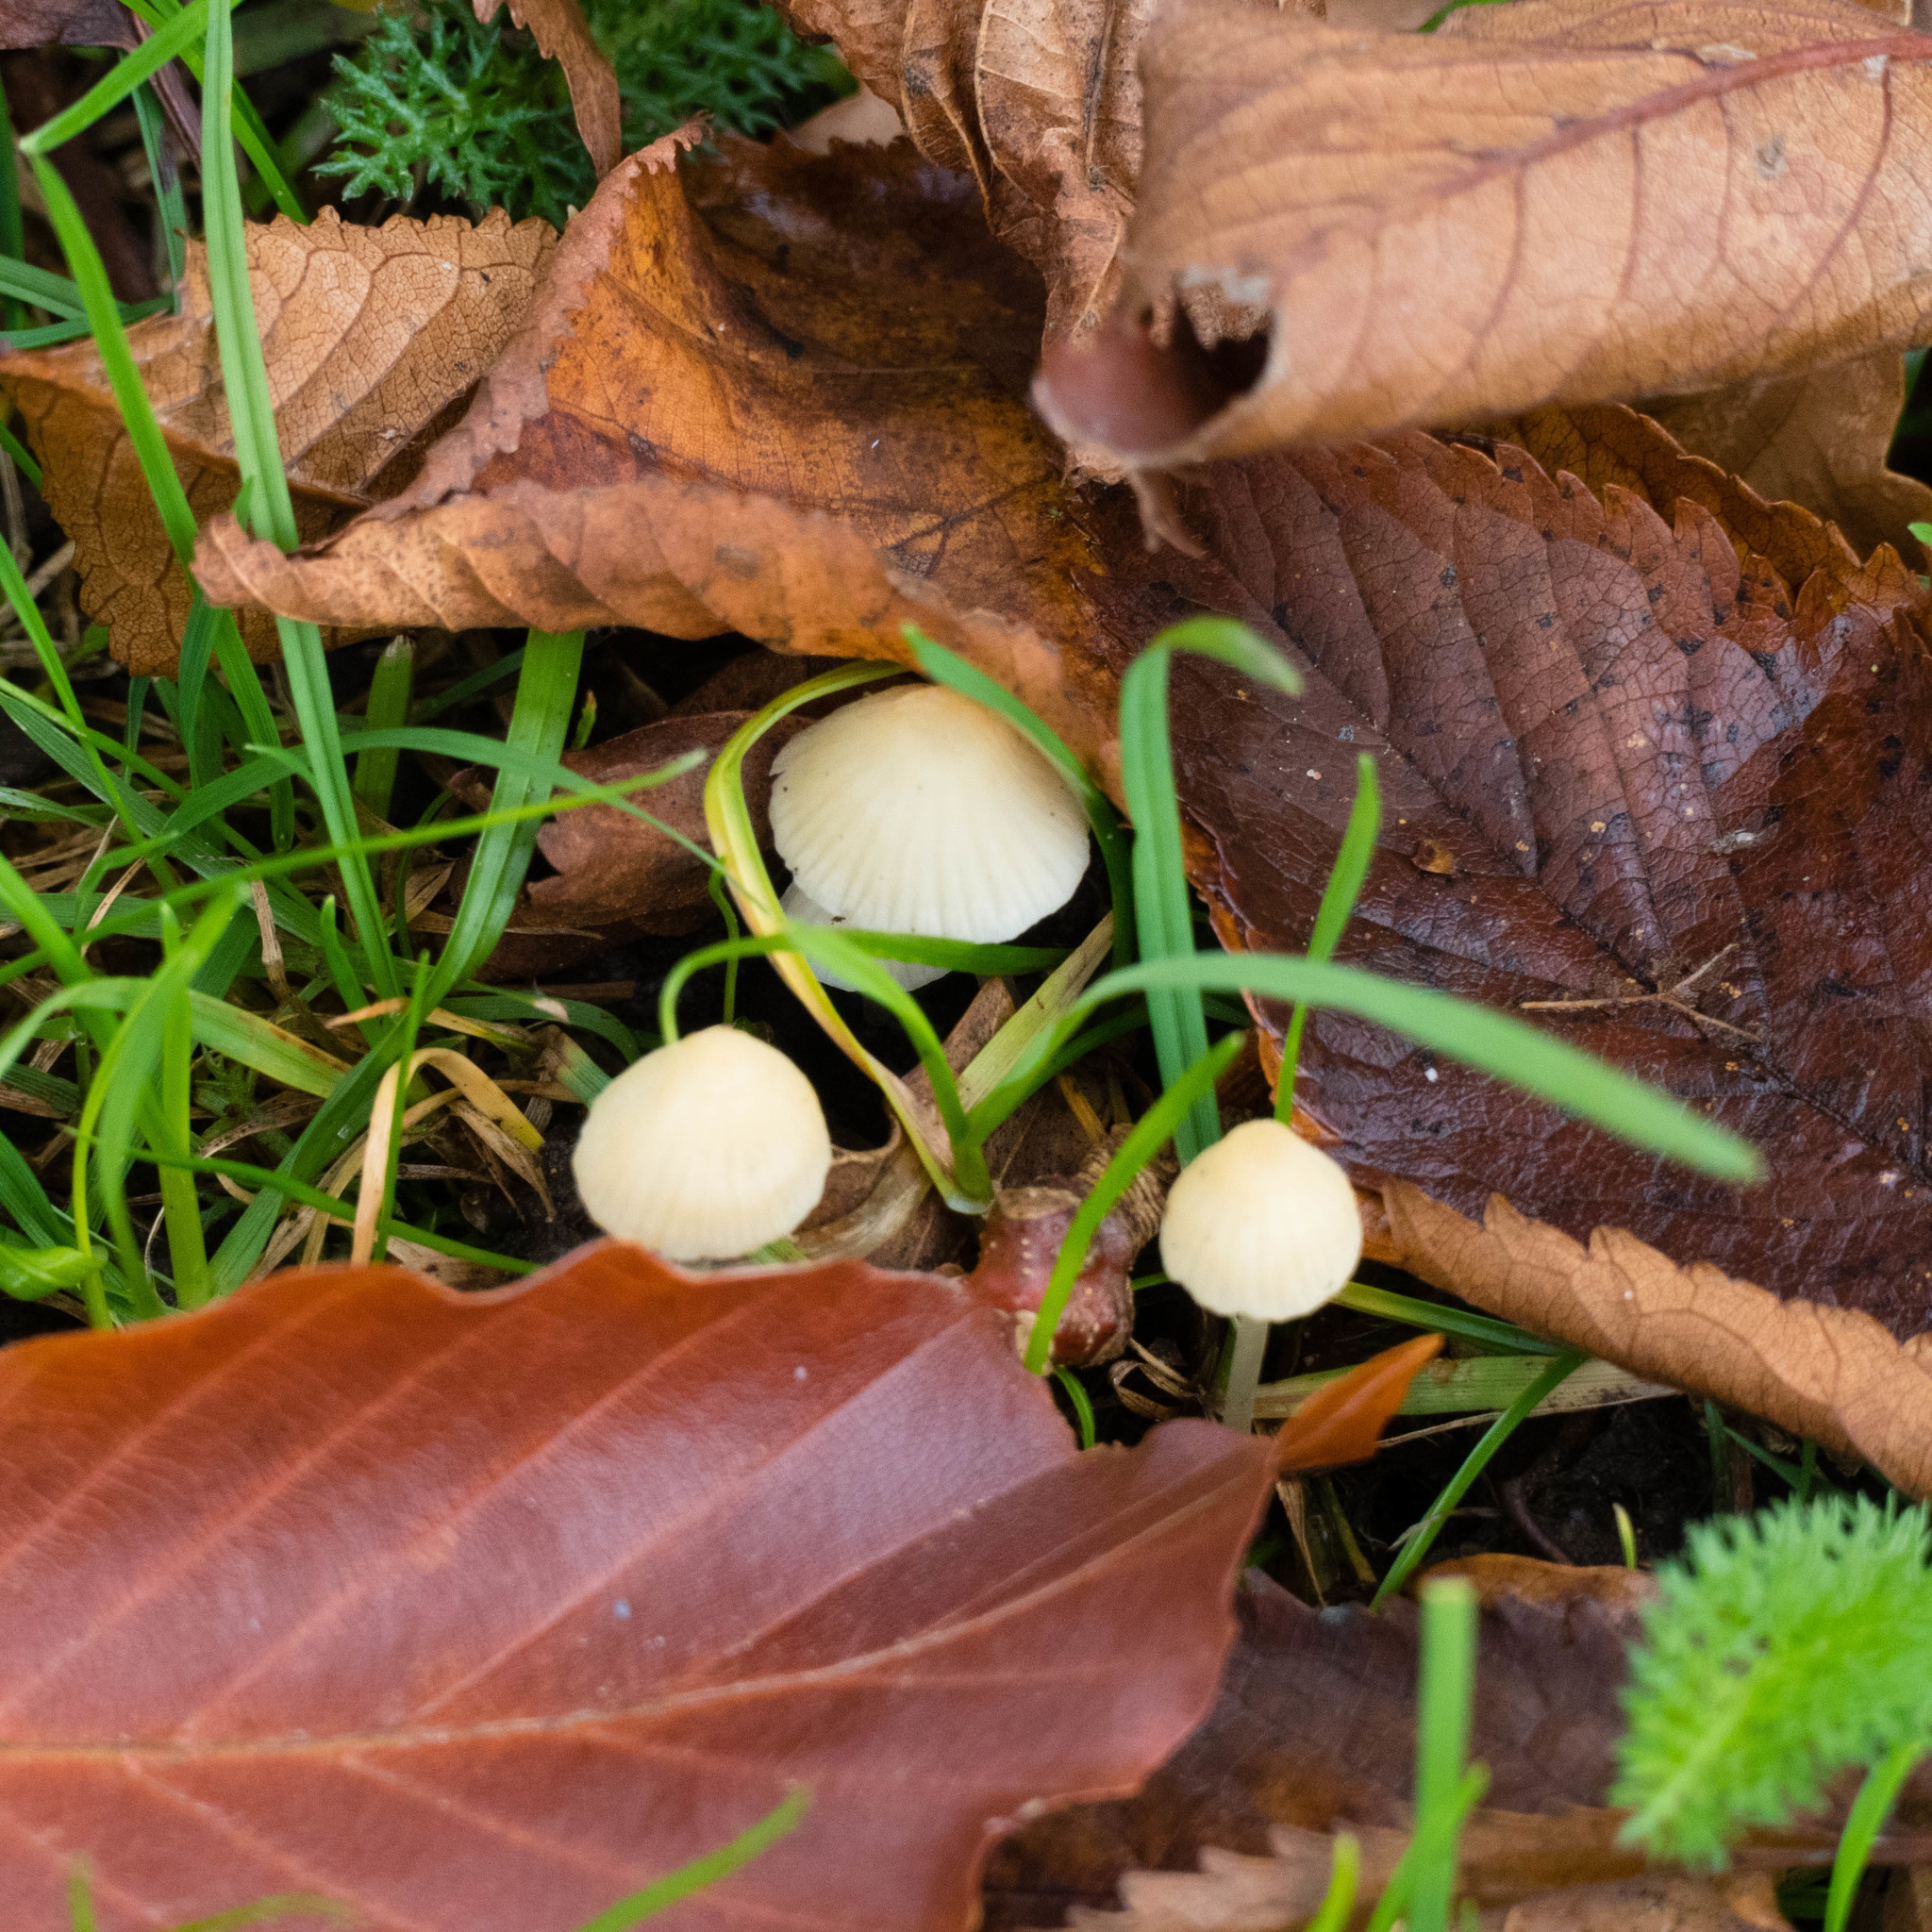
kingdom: Fungi
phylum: Basidiomycota
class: Agaricomycetes
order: Agaricales
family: Mycenaceae
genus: Atheniella
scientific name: Atheniella flavoalba
